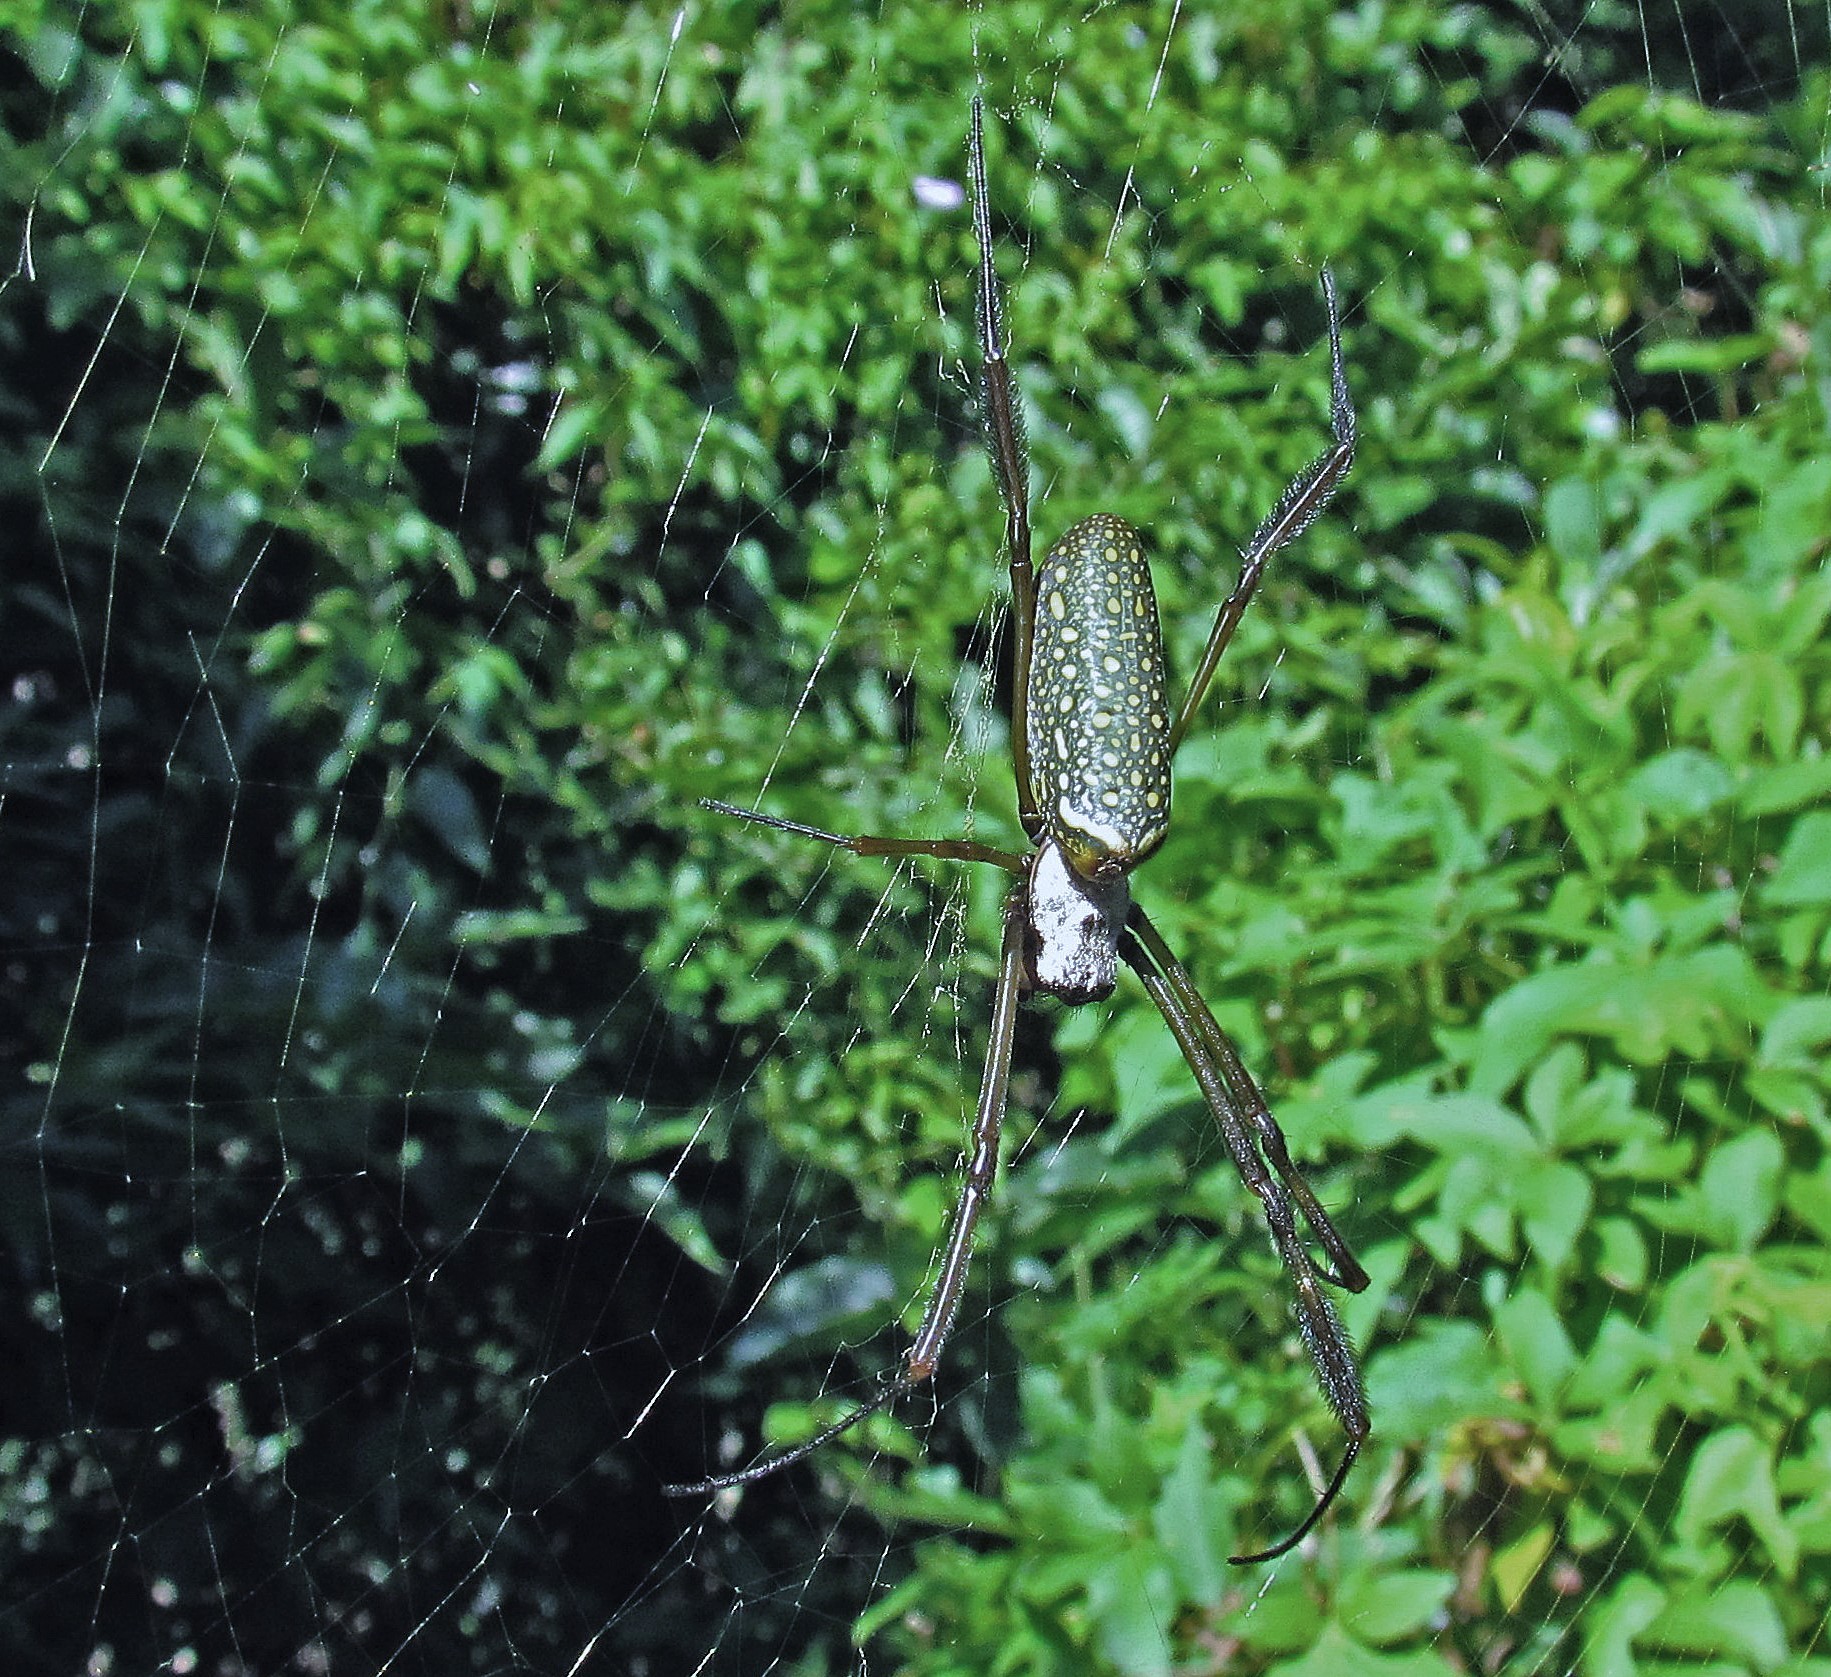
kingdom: Animalia
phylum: Arthropoda
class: Arachnida
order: Araneae
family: Araneidae
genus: Trichonephila
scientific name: Trichonephila clavipes
